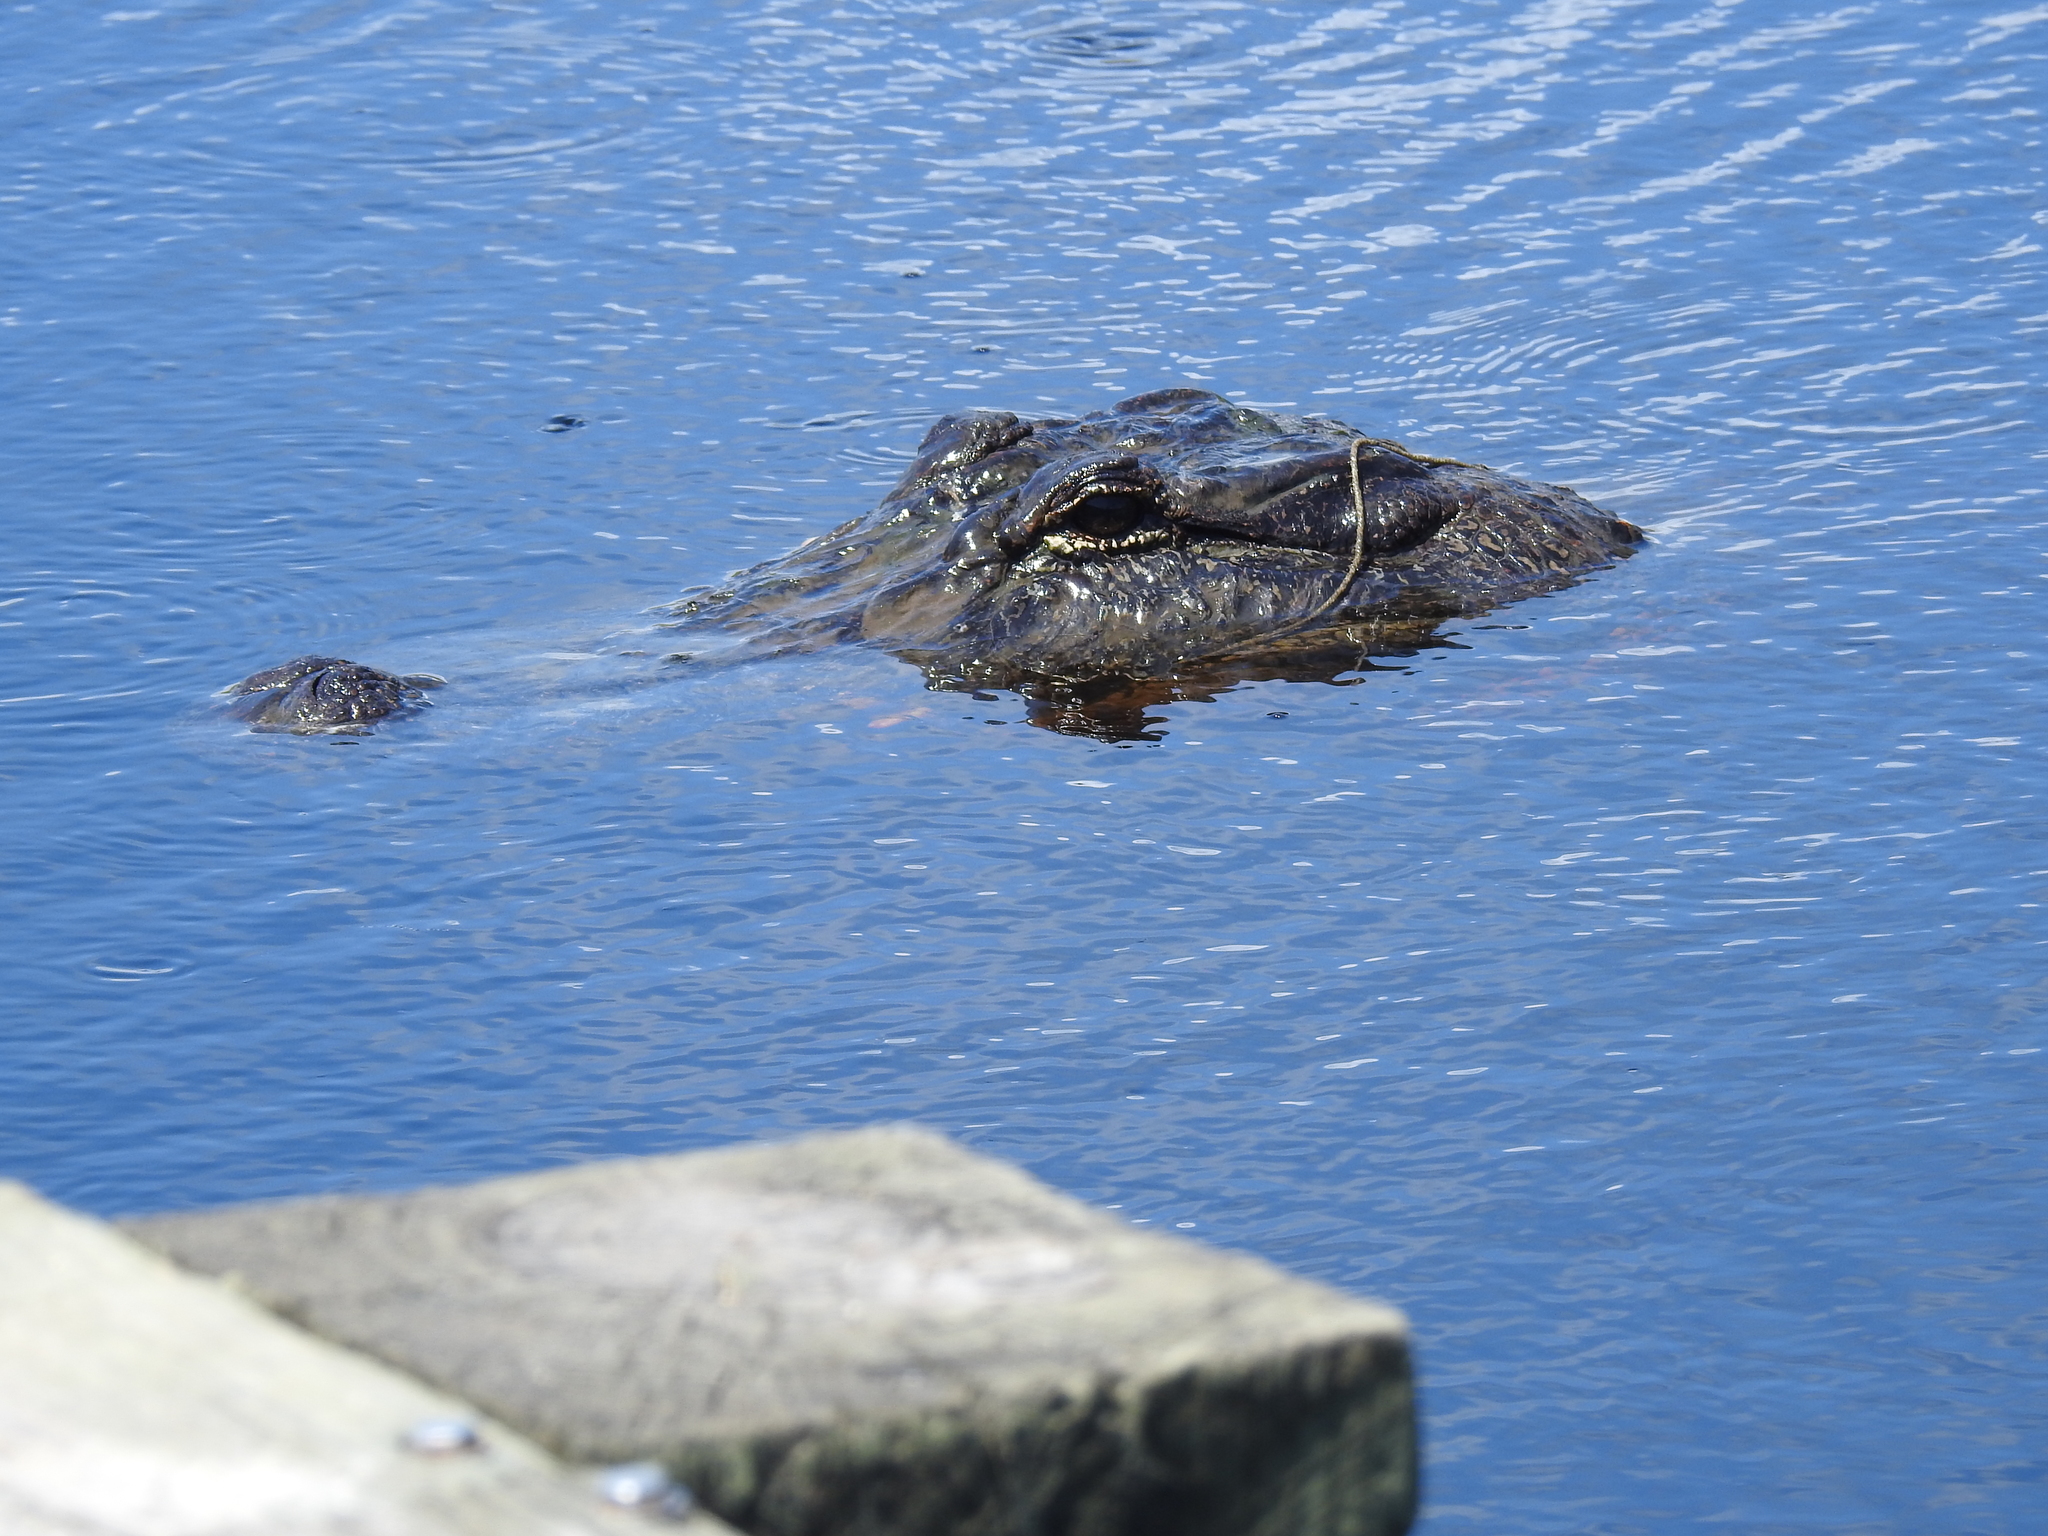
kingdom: Animalia
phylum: Chordata
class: Crocodylia
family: Alligatoridae
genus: Alligator
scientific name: Alligator mississippiensis
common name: American alligator
